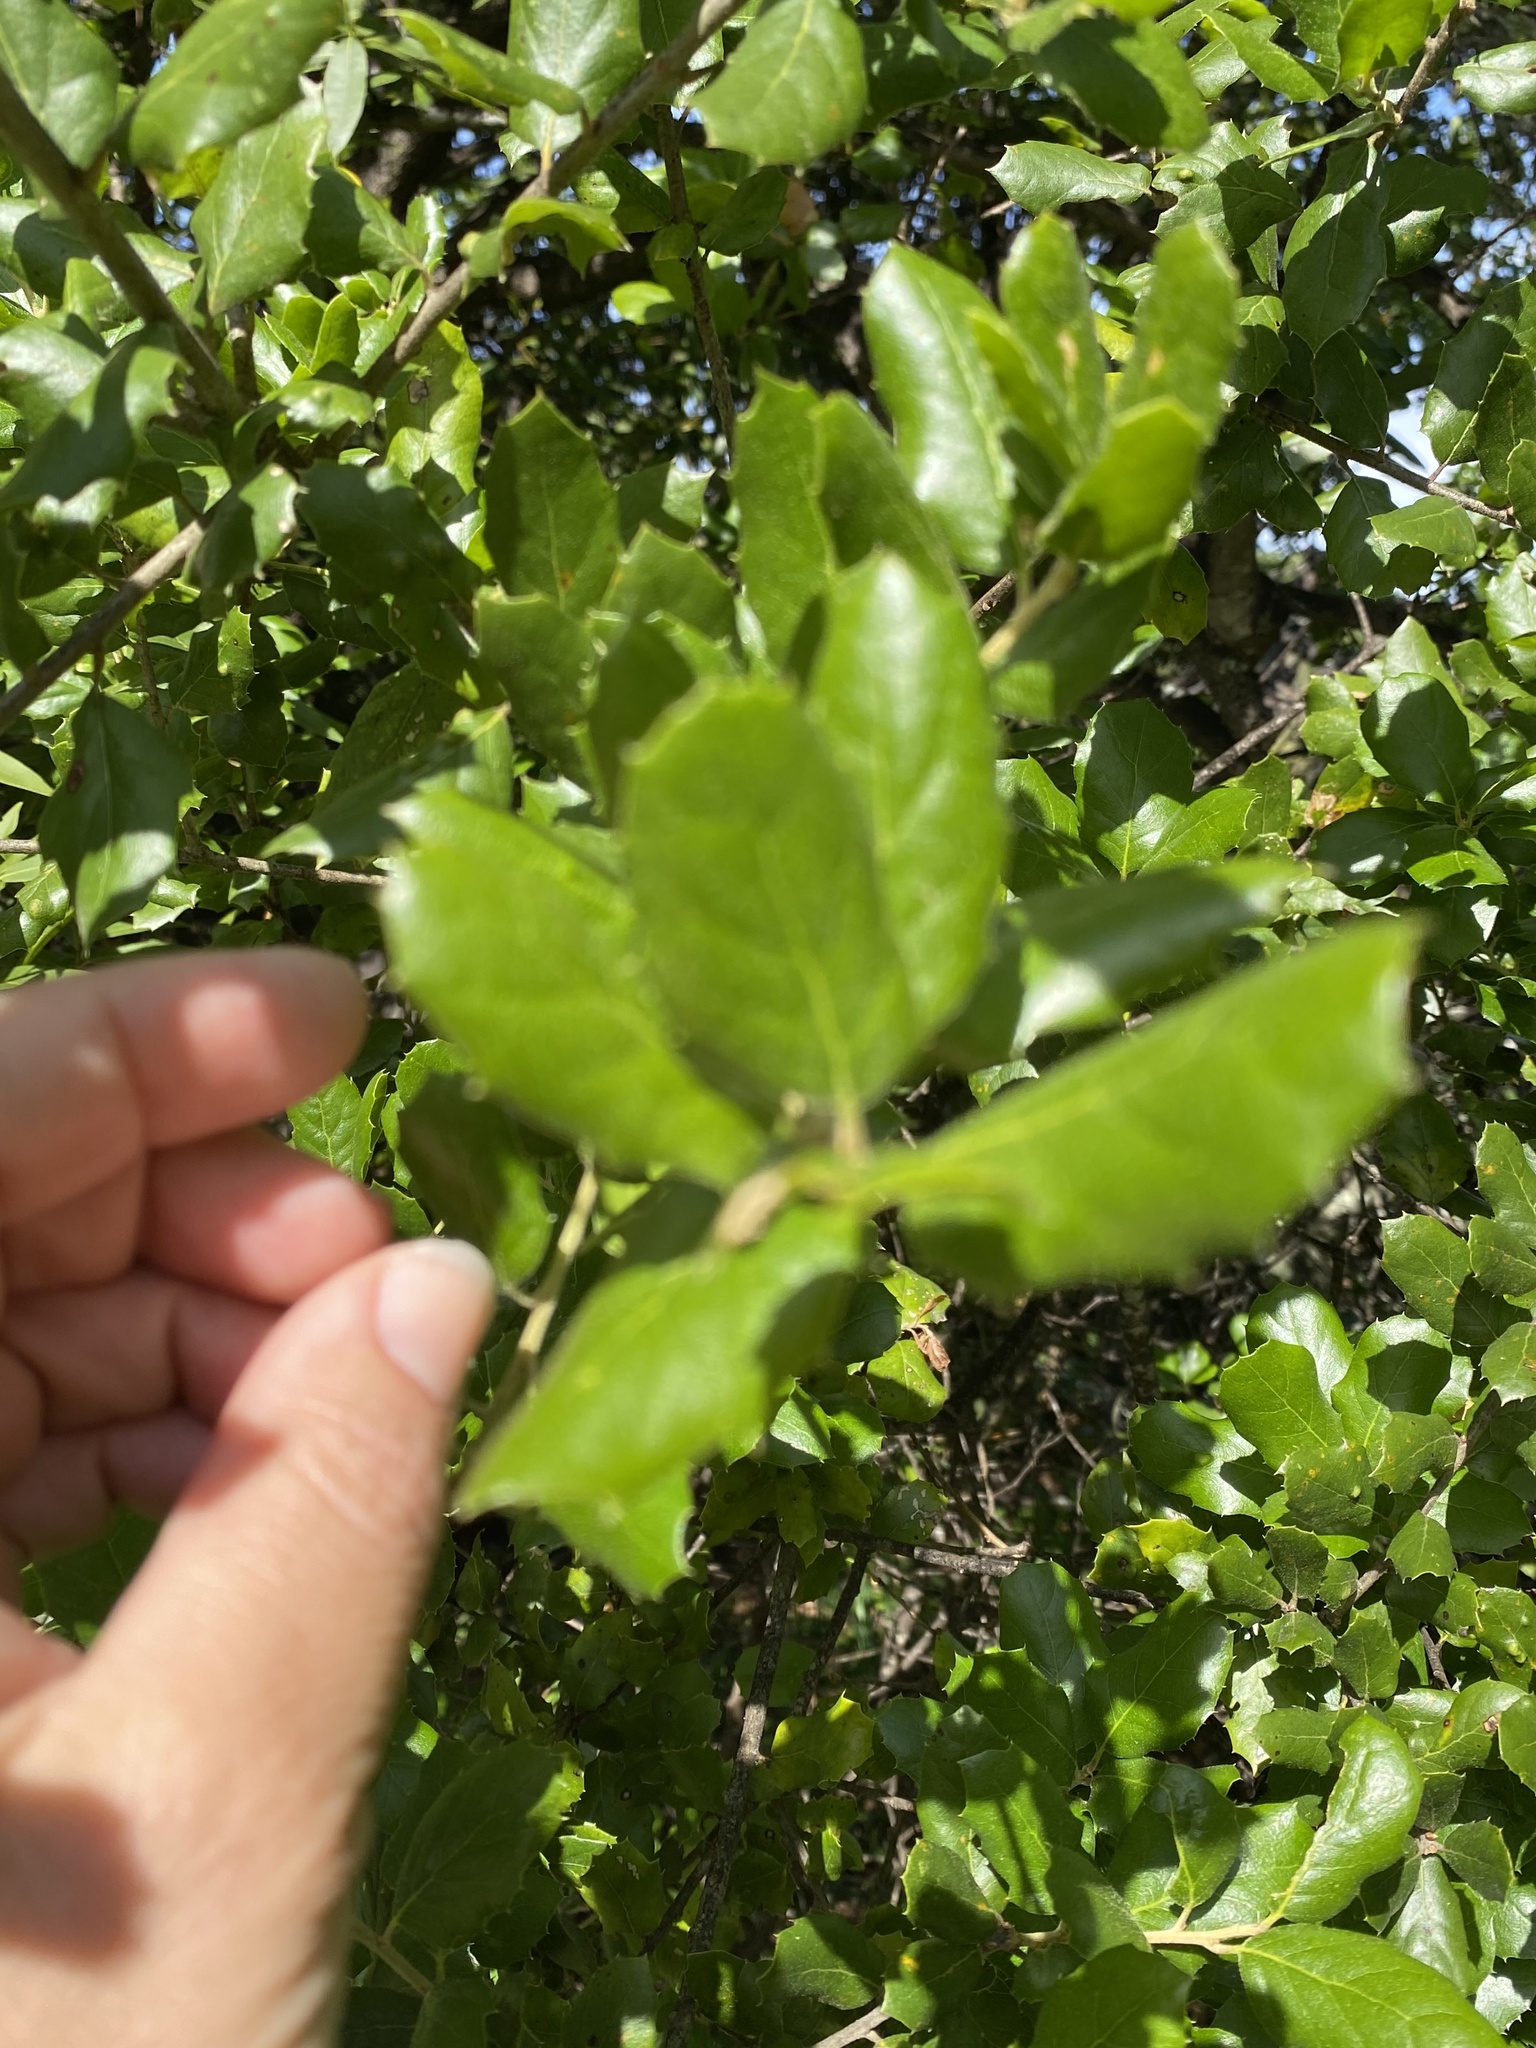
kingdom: Plantae
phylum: Tracheophyta
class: Magnoliopsida
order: Fagales
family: Fagaceae
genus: Quercus
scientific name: Quercus agrifolia
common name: California live oak
